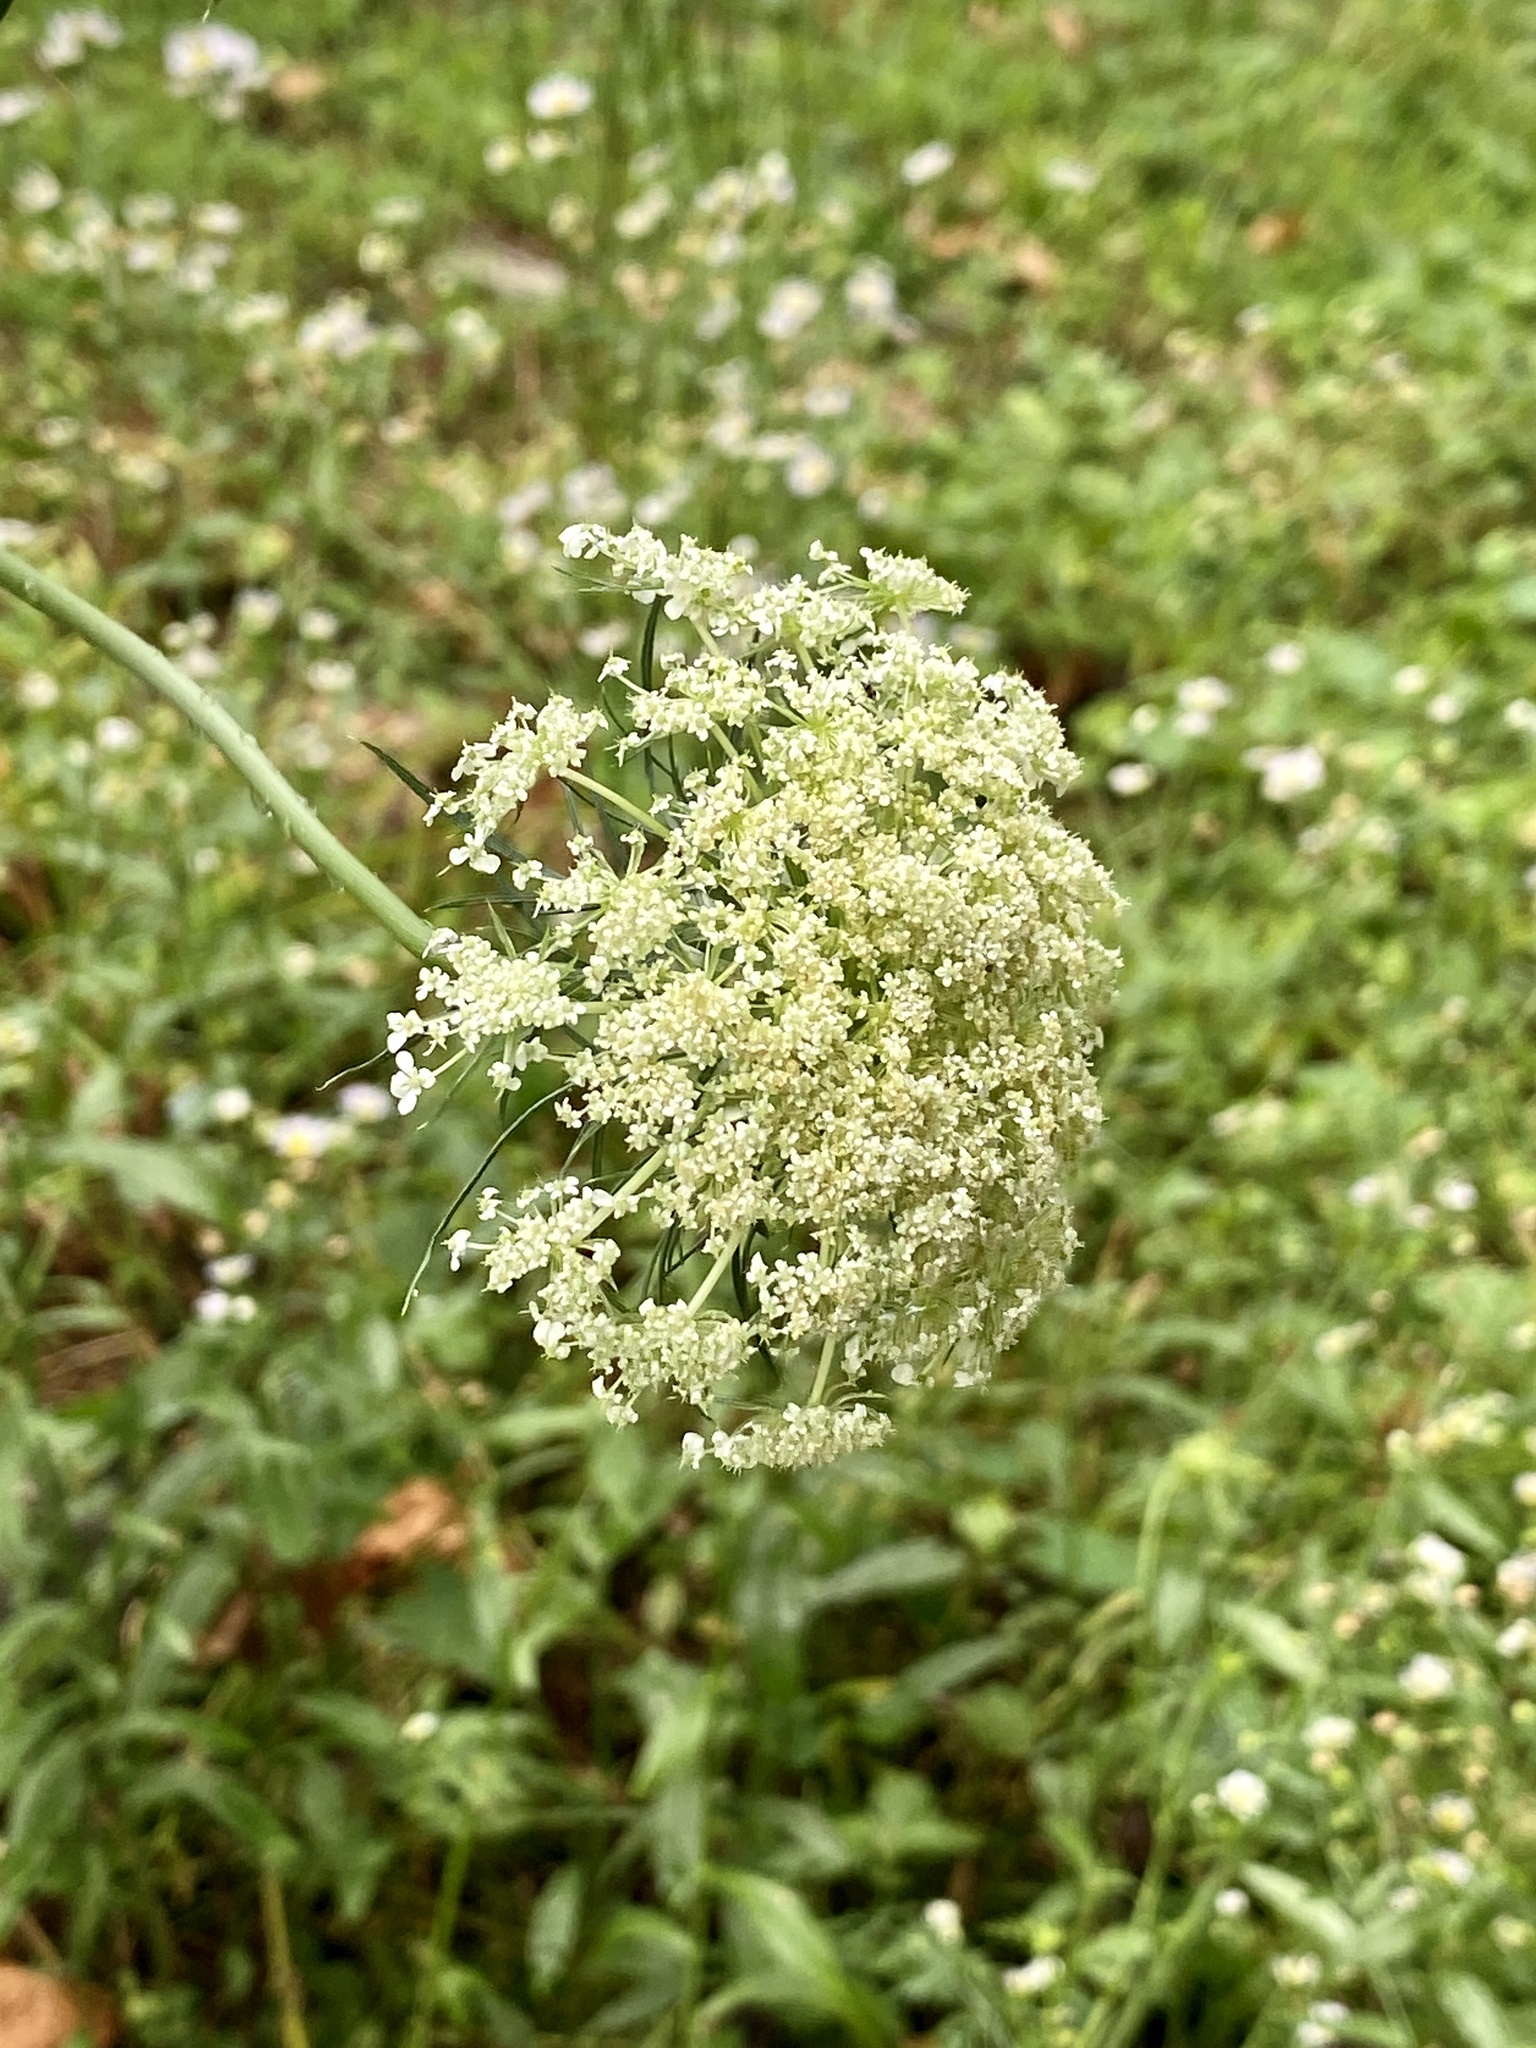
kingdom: Plantae
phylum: Tracheophyta
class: Magnoliopsida
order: Apiales
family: Apiaceae
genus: Daucus
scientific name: Daucus carota
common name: Wild carrot
